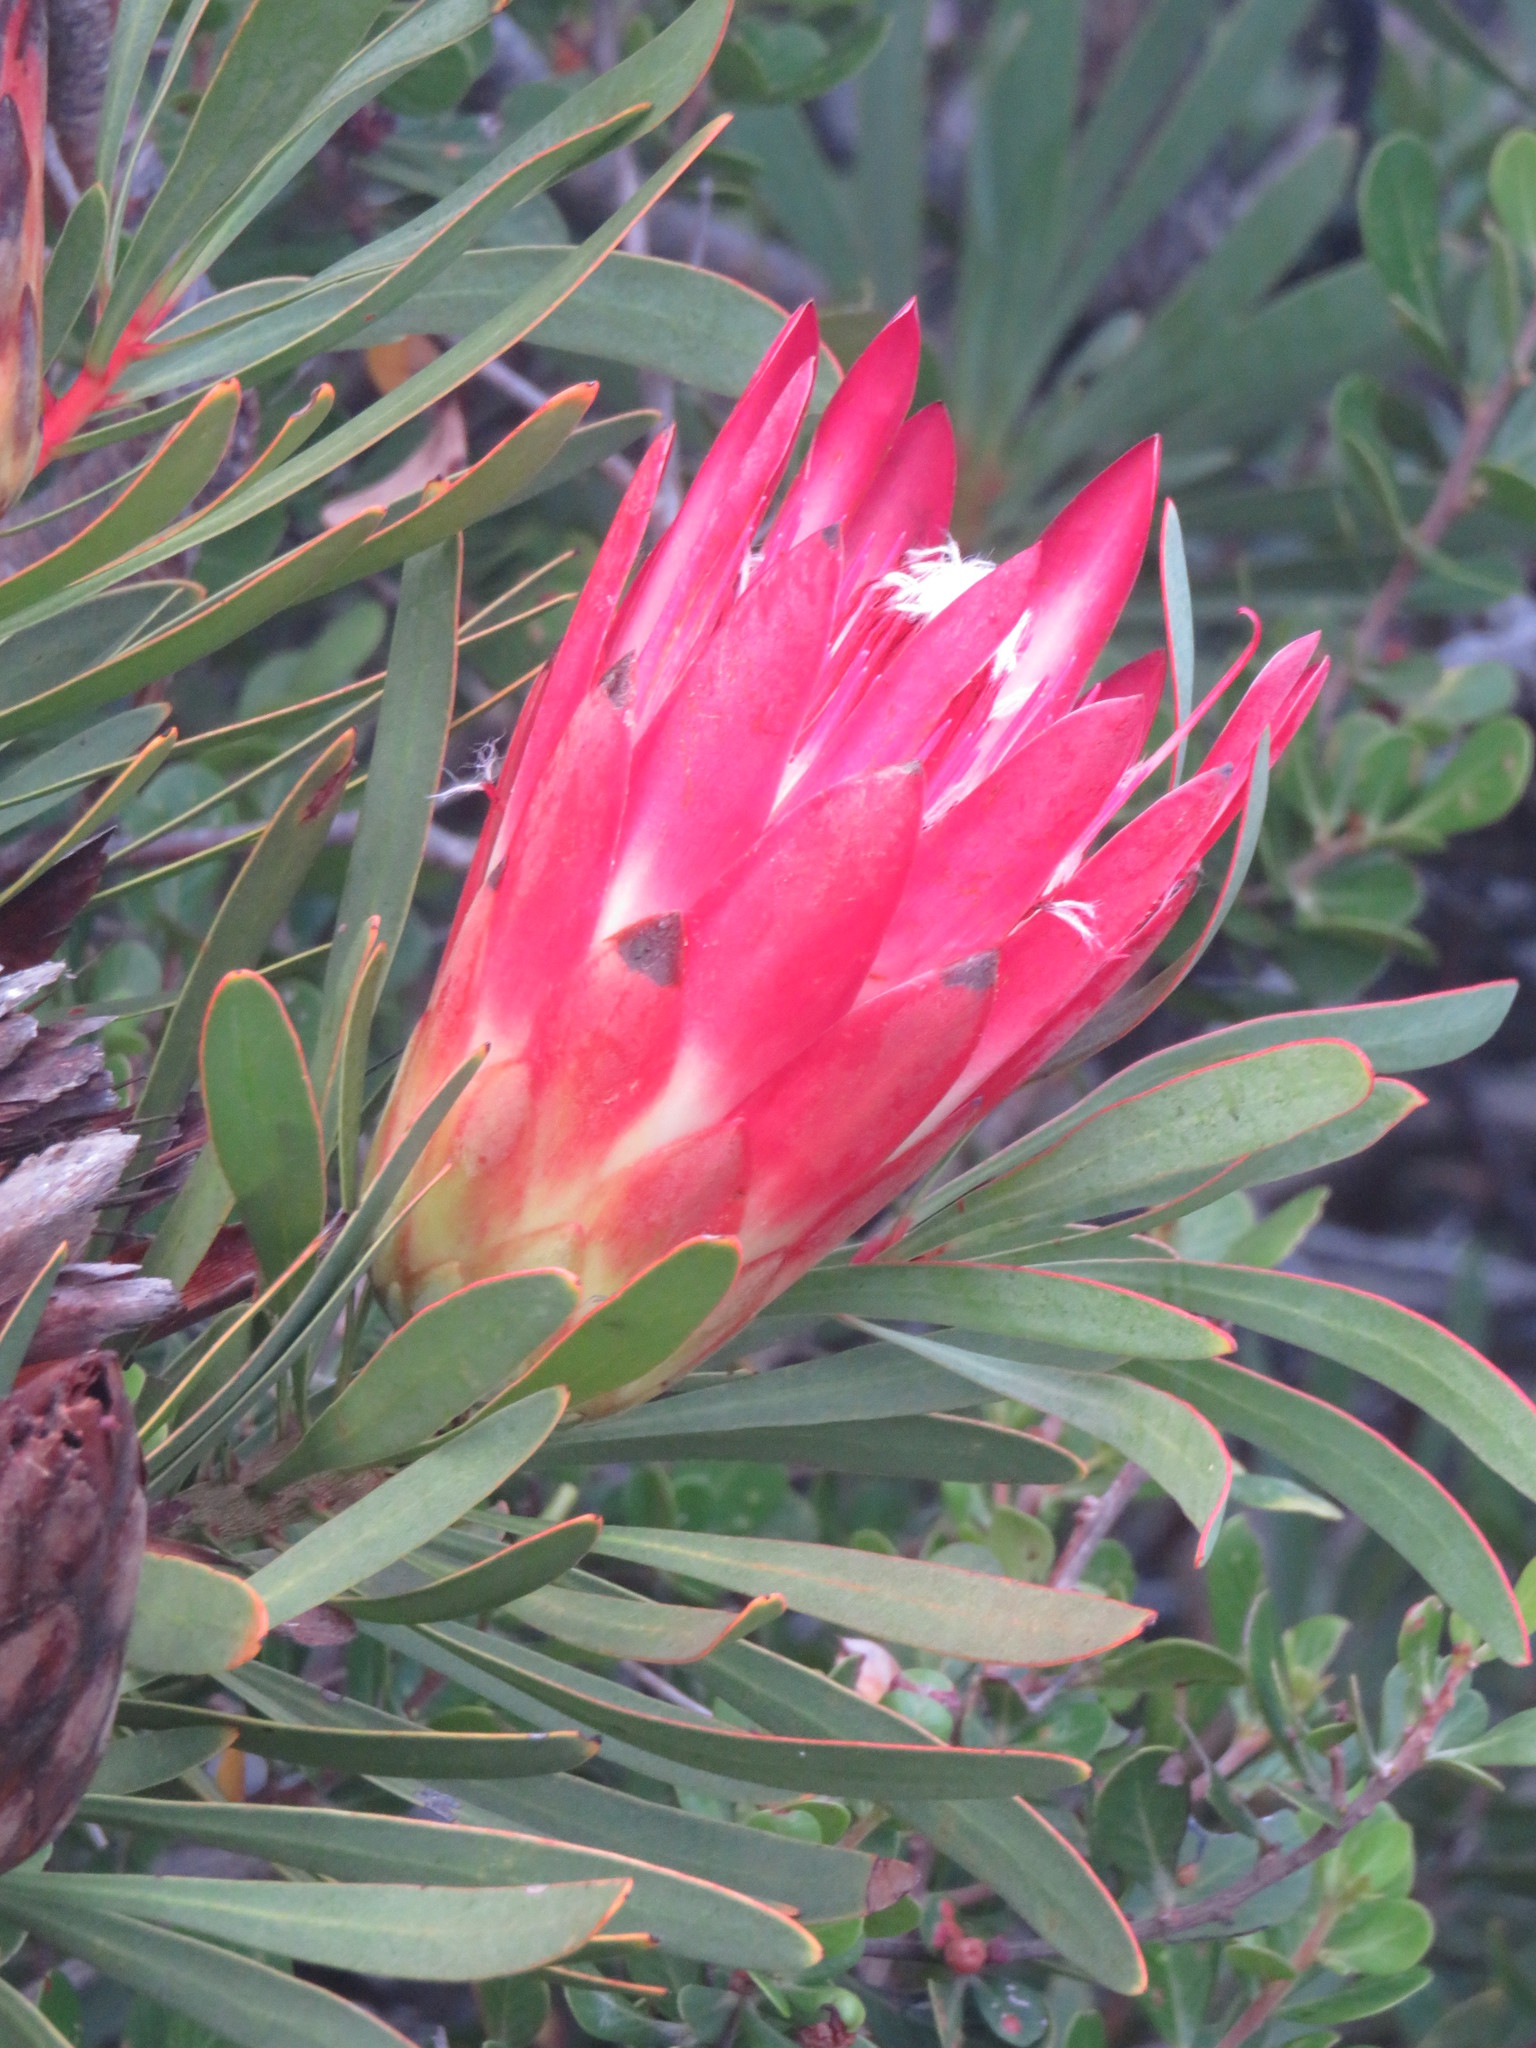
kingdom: Plantae
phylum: Tracheophyta
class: Magnoliopsida
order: Proteales
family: Proteaceae
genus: Protea
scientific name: Protea repens
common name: Sugarbush
